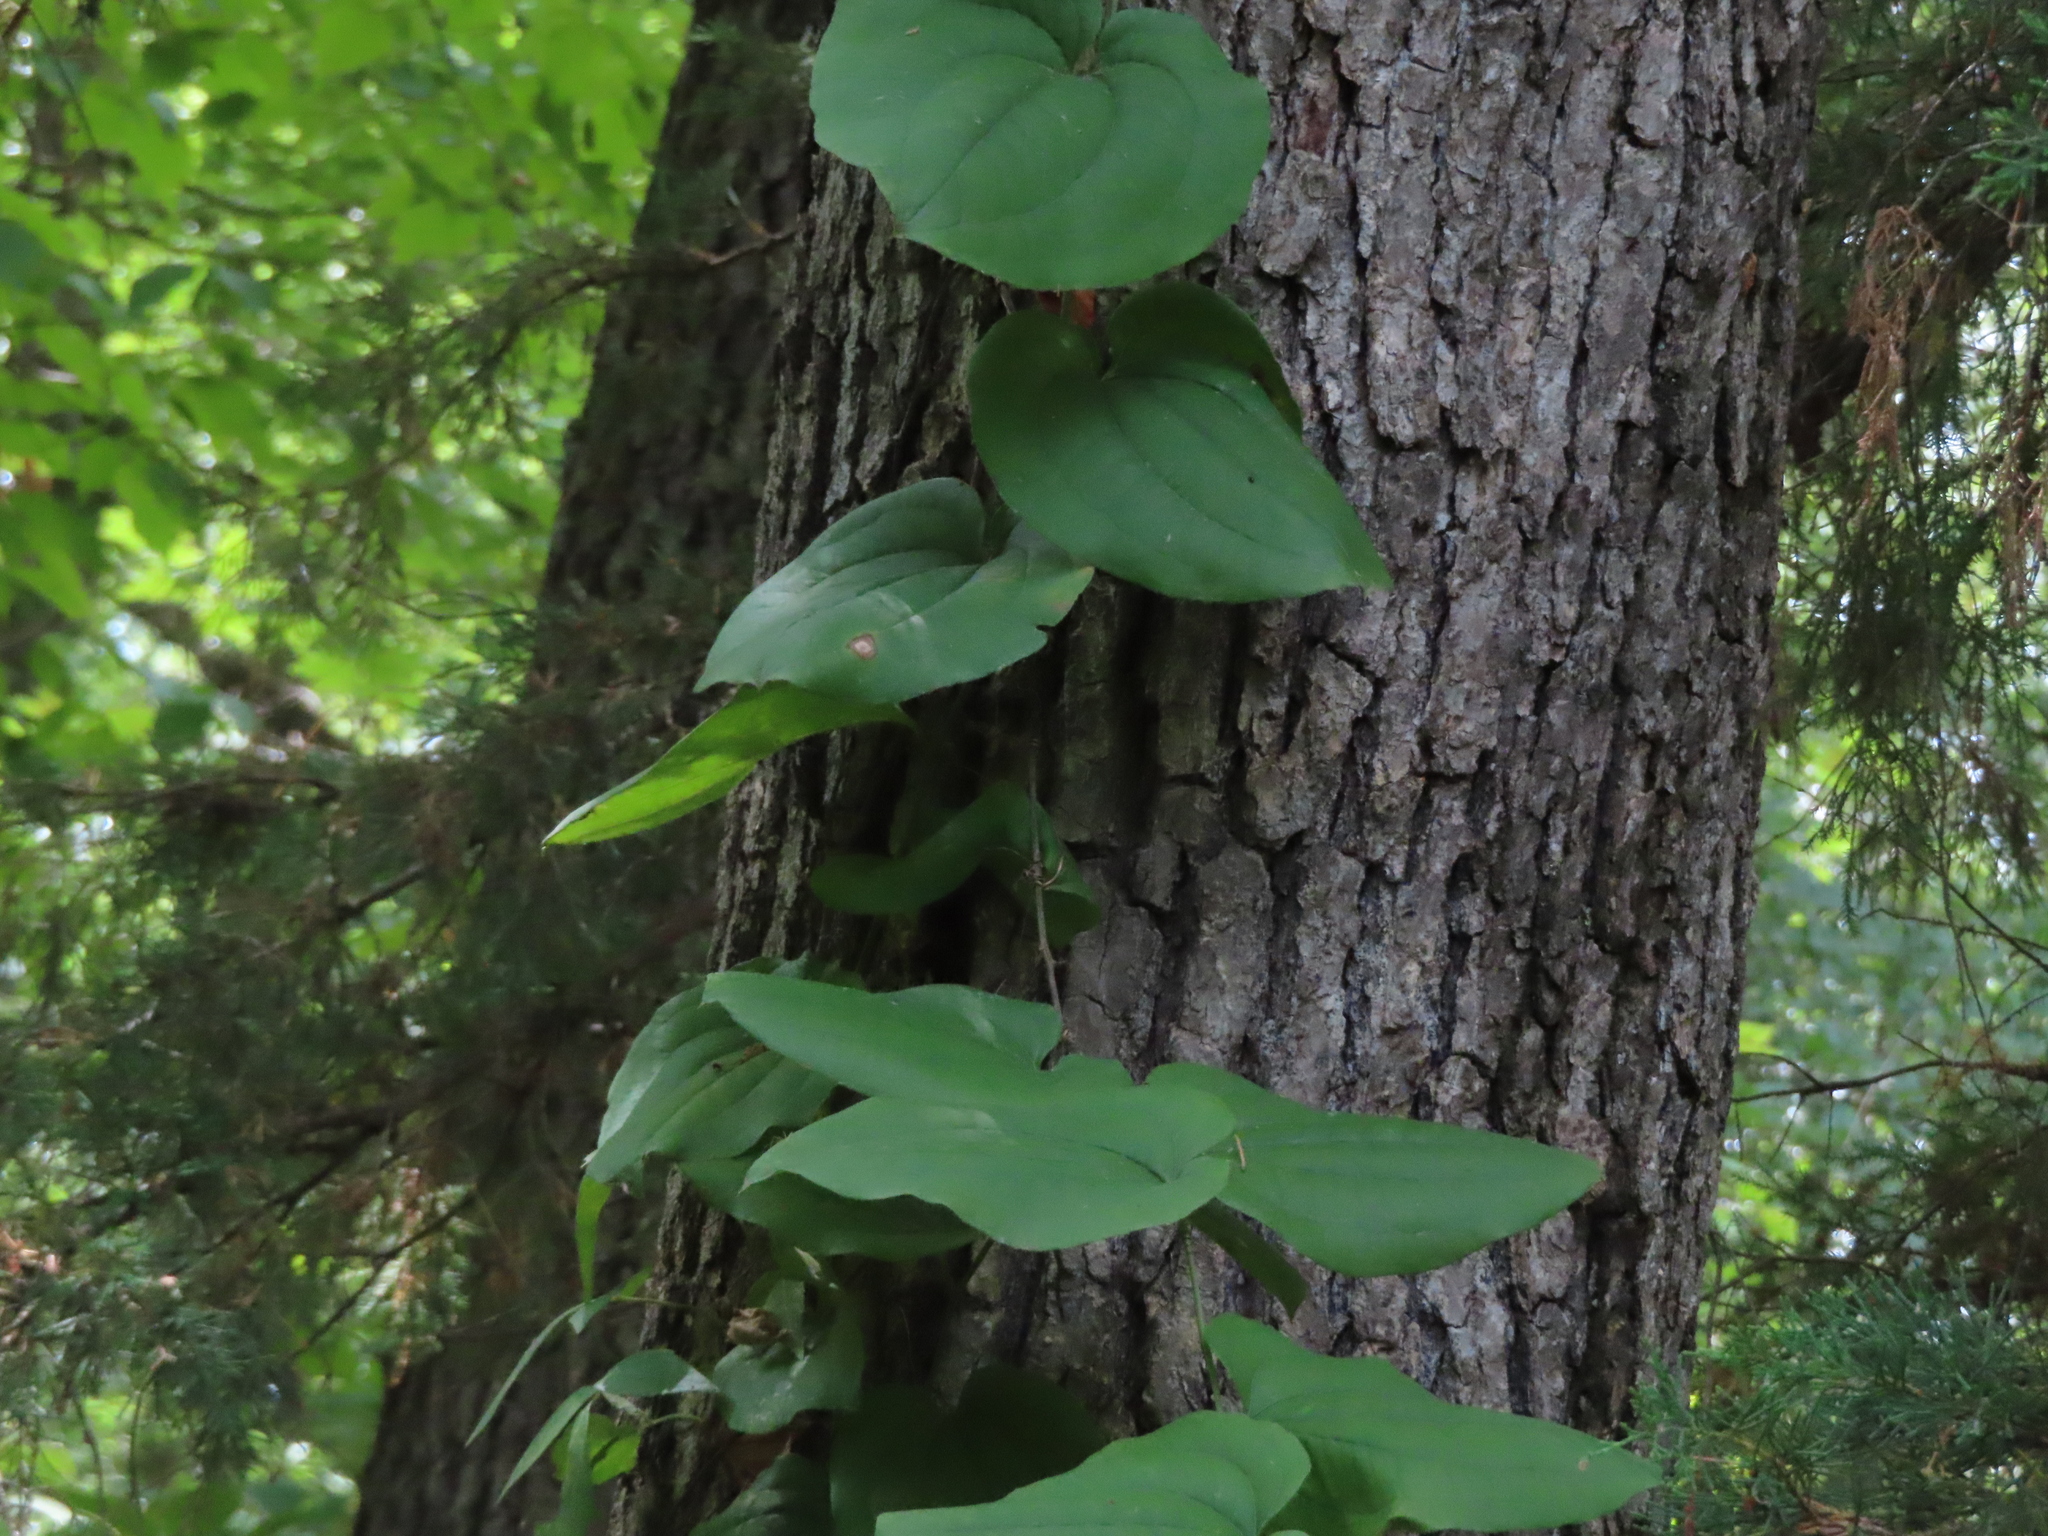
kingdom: Plantae
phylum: Tracheophyta
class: Liliopsida
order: Liliales
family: Smilacaceae
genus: Smilax
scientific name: Smilax tamnoides
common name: Hellfetter
